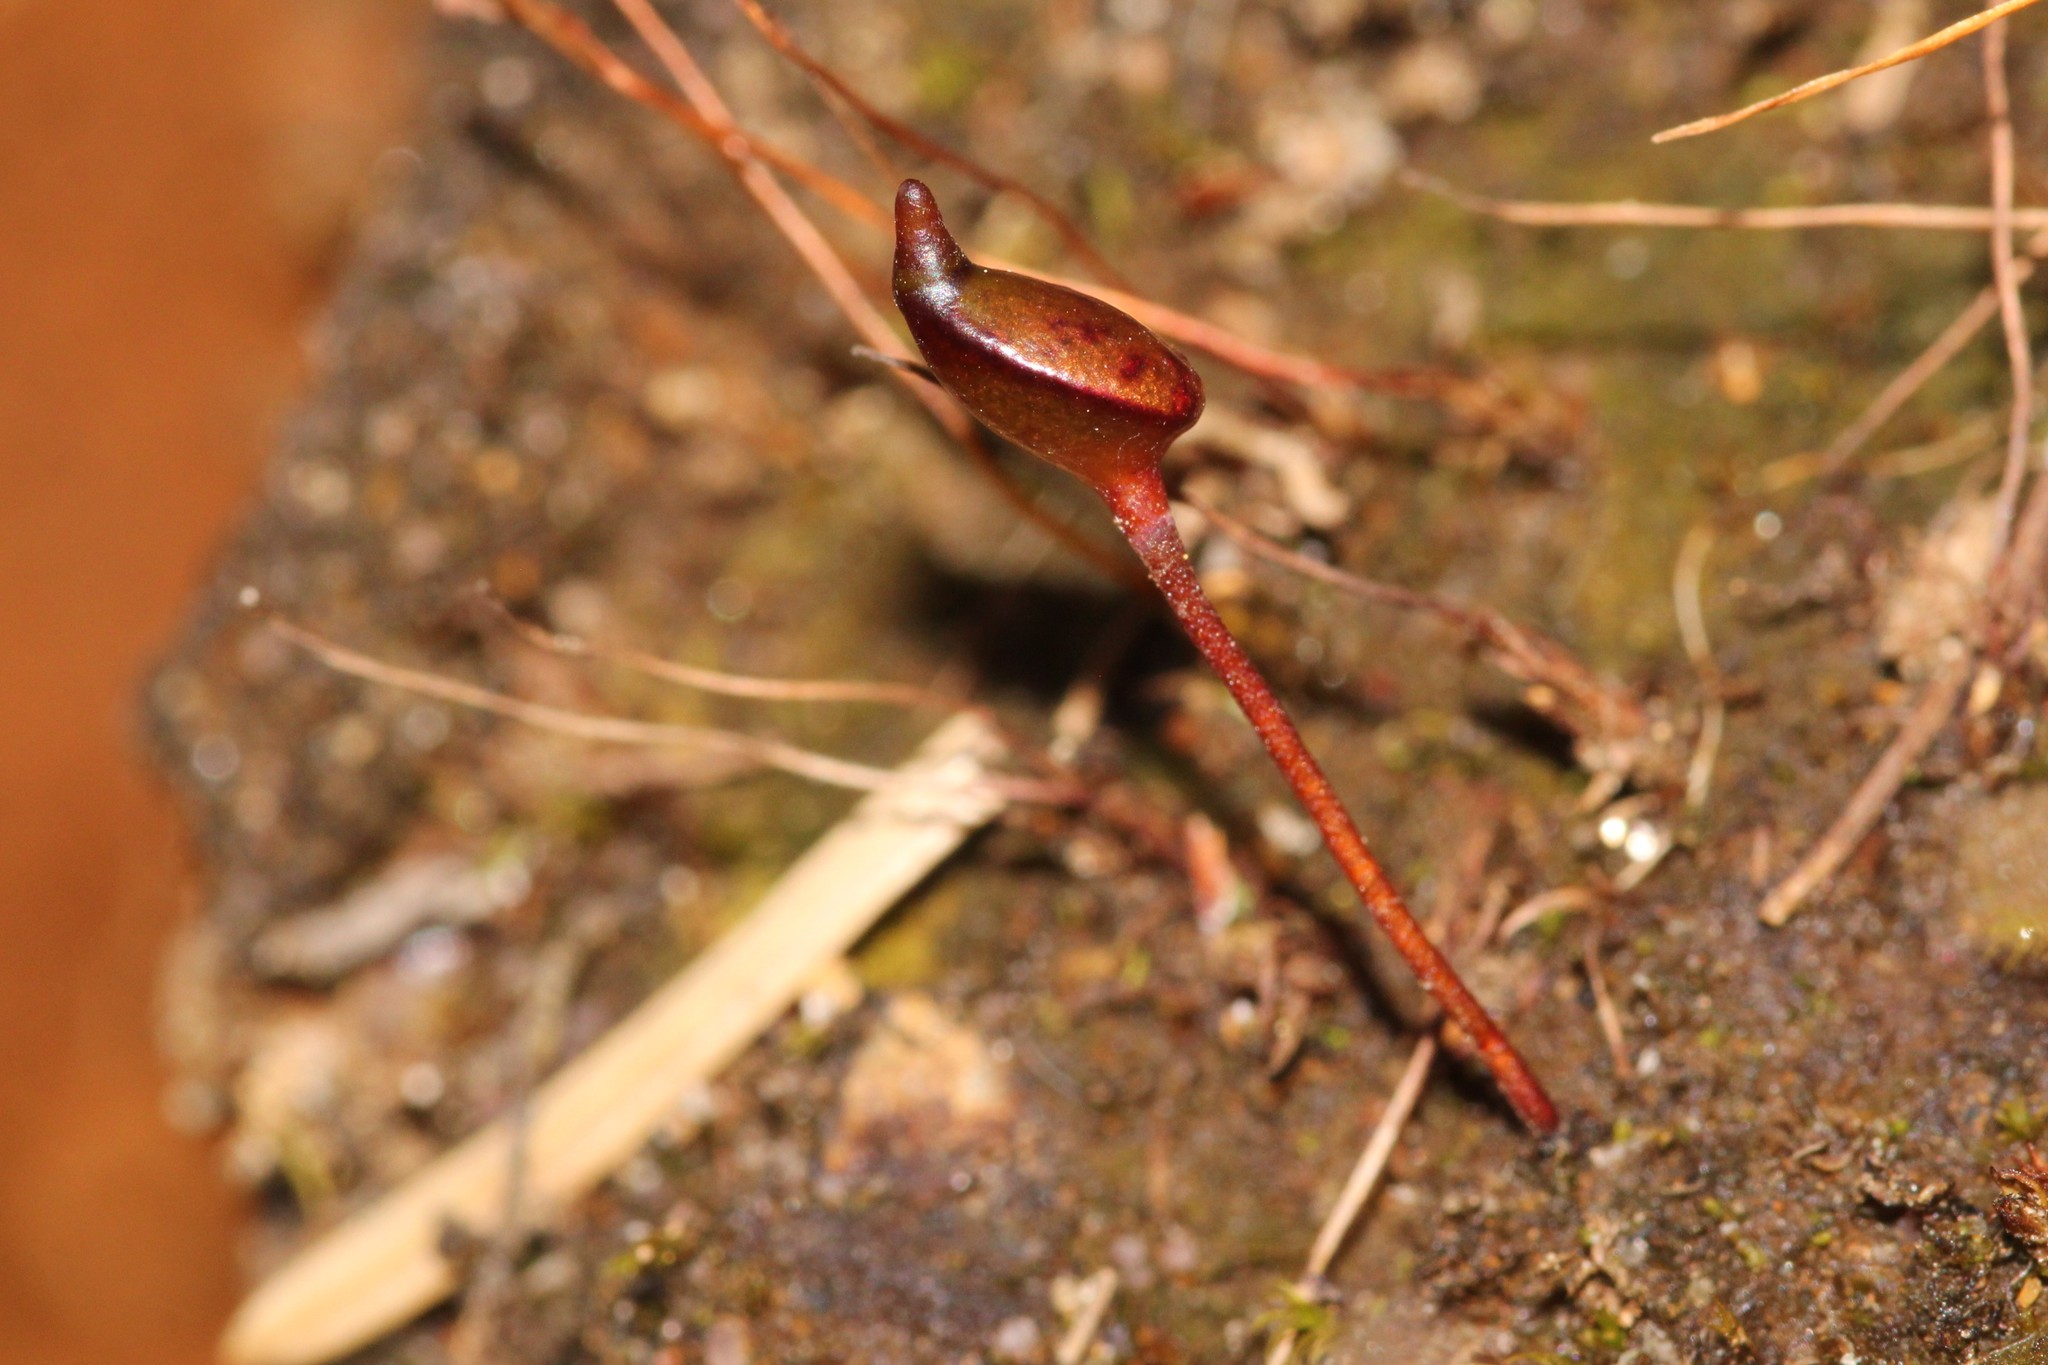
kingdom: Plantae
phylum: Bryophyta
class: Bryopsida
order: Buxbaumiales
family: Buxbaumiaceae
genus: Buxbaumia
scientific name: Buxbaumia aphylla
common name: Brown shield-moss
